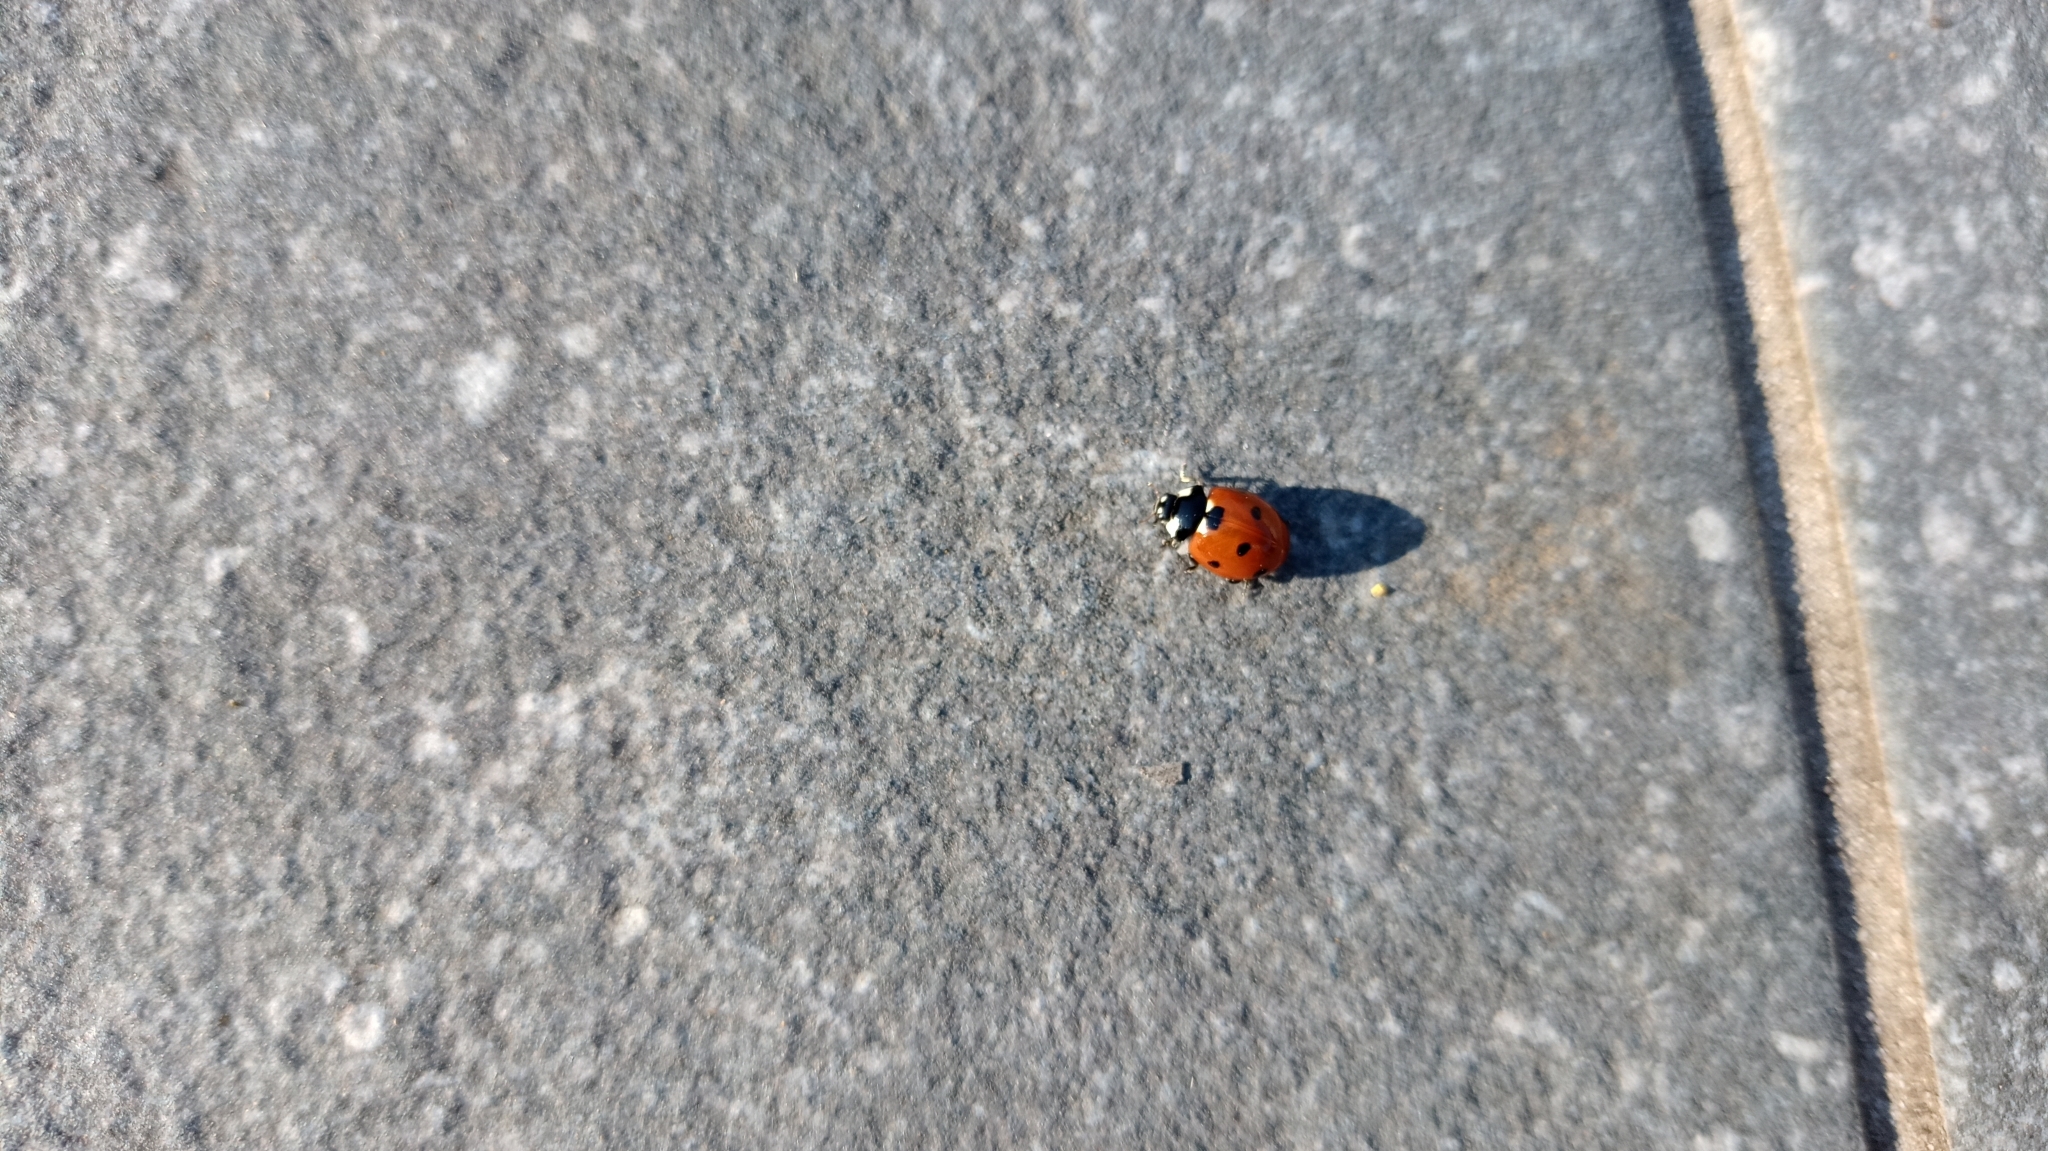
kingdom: Animalia
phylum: Arthropoda
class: Insecta
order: Coleoptera
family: Coccinellidae
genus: Coccinella
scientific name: Coccinella septempunctata
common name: Sevenspotted lady beetle
